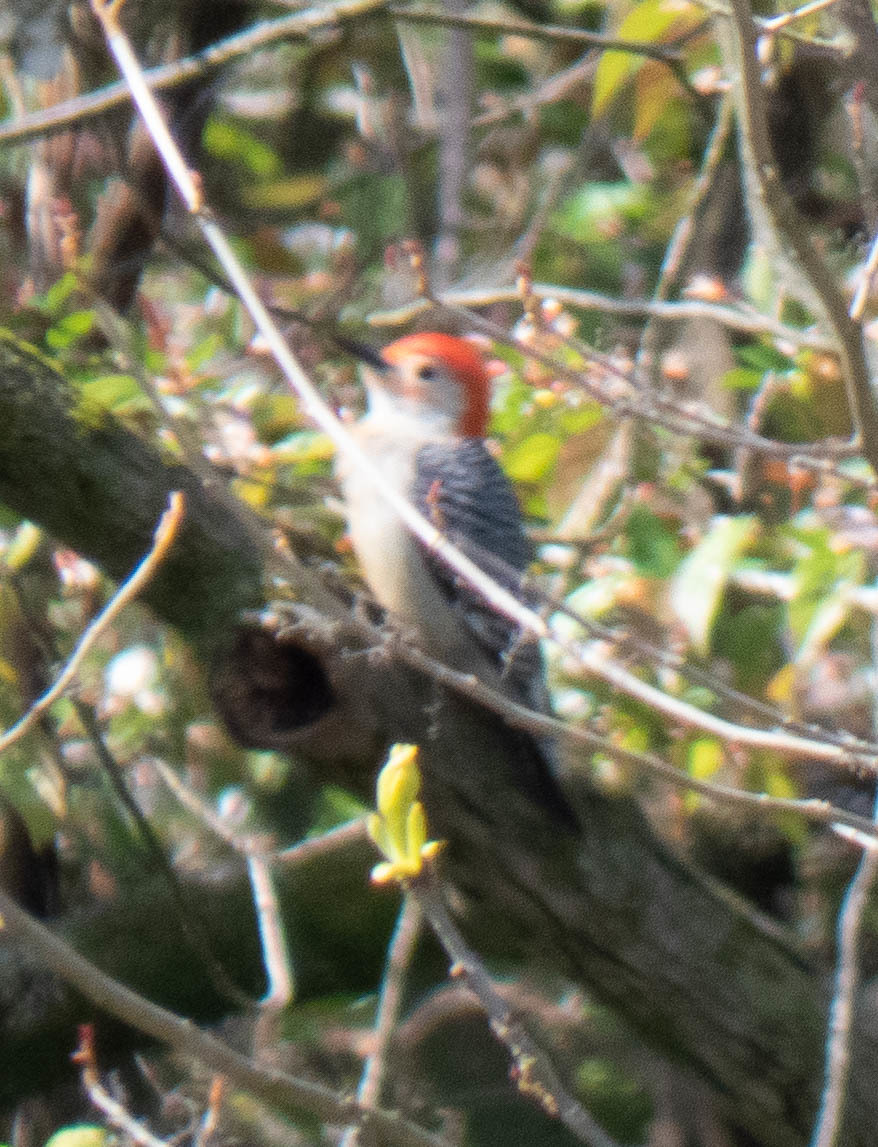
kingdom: Animalia
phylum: Chordata
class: Aves
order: Piciformes
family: Picidae
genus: Melanerpes
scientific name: Melanerpes carolinus
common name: Red-bellied woodpecker
